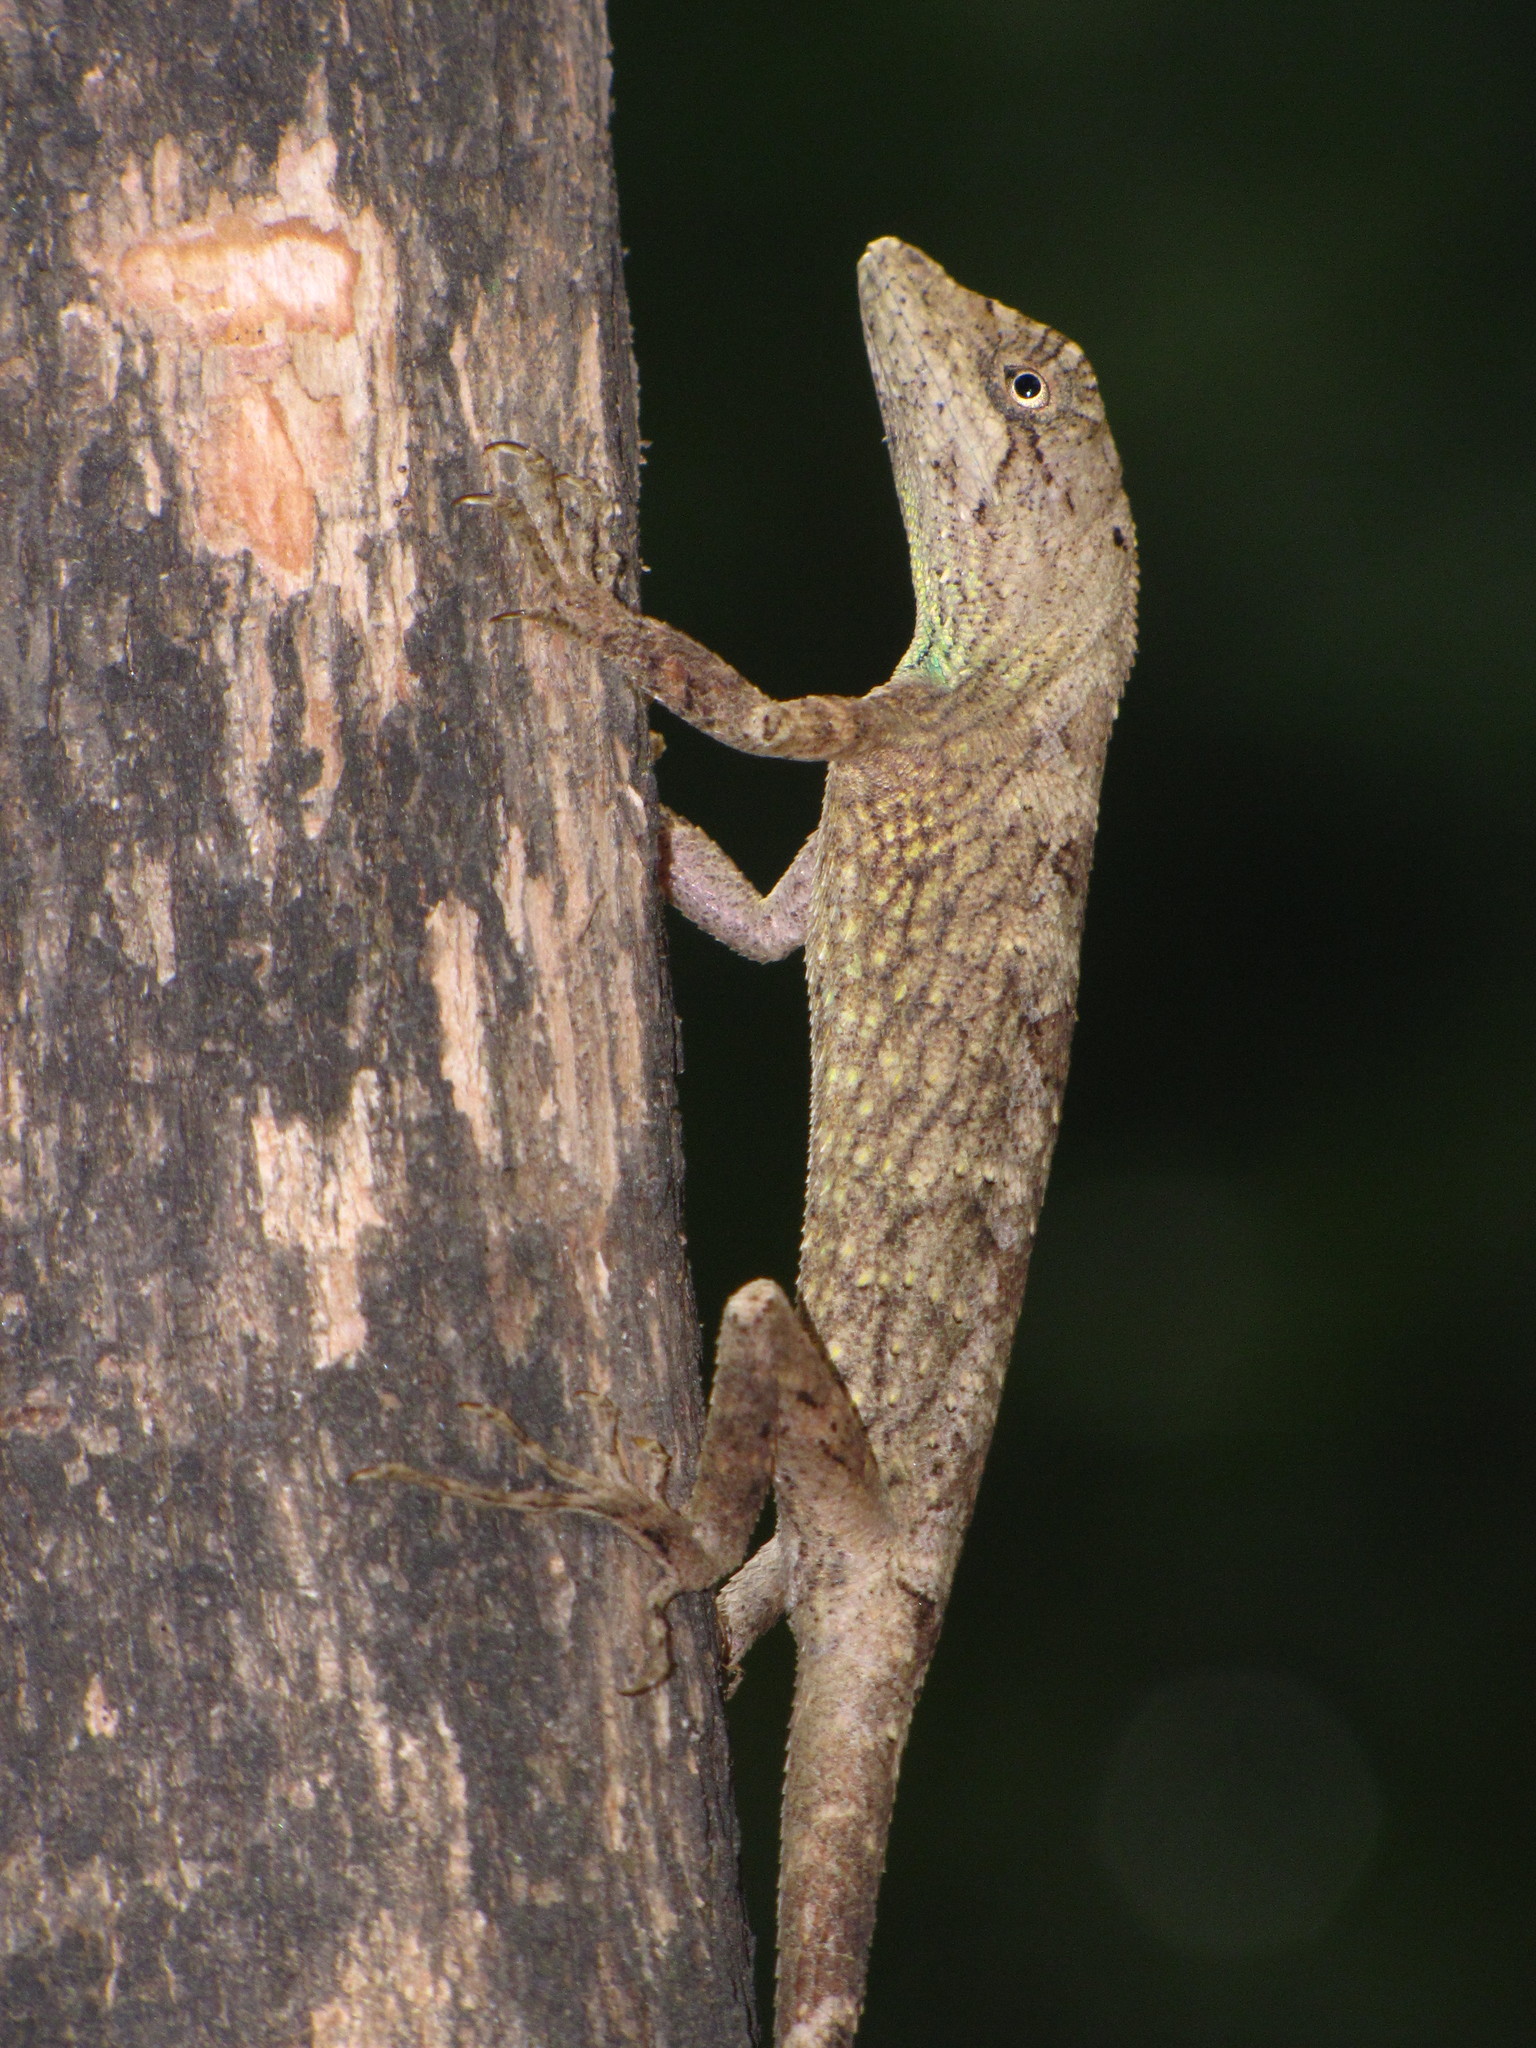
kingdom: Animalia
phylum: Chordata
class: Squamata
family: Agamidae
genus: Ptyctolaemus
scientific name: Ptyctolaemus gularis
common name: Green fan-throated lizard
